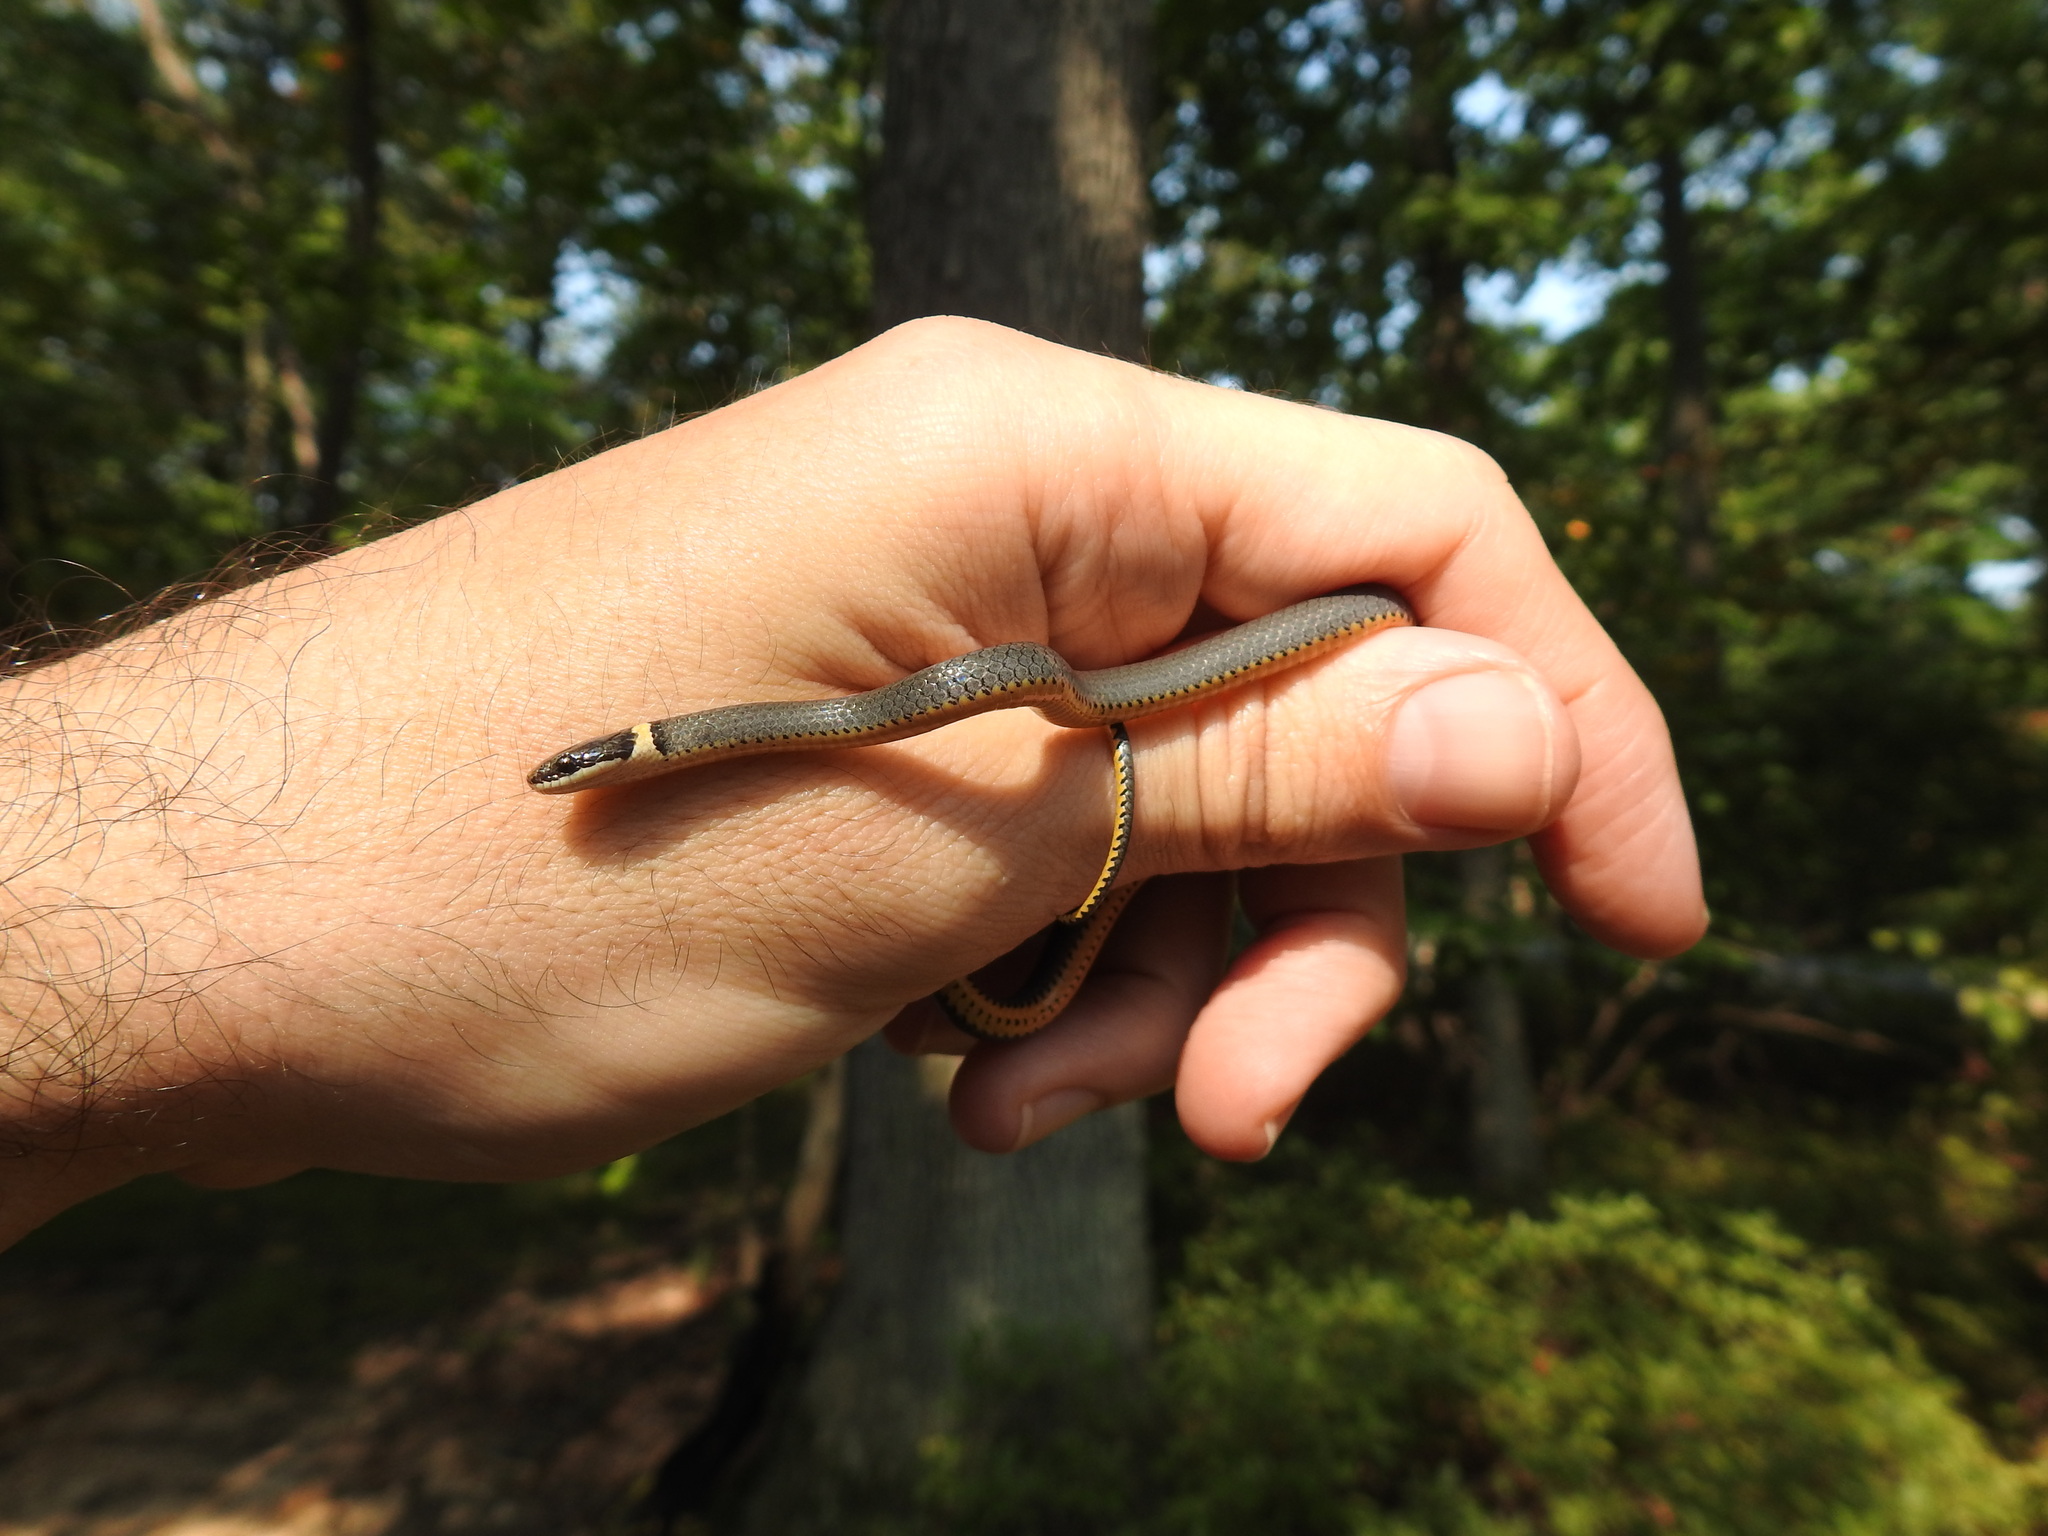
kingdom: Animalia
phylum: Chordata
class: Squamata
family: Colubridae
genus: Diadophis
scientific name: Diadophis punctatus
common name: Ringneck snake
